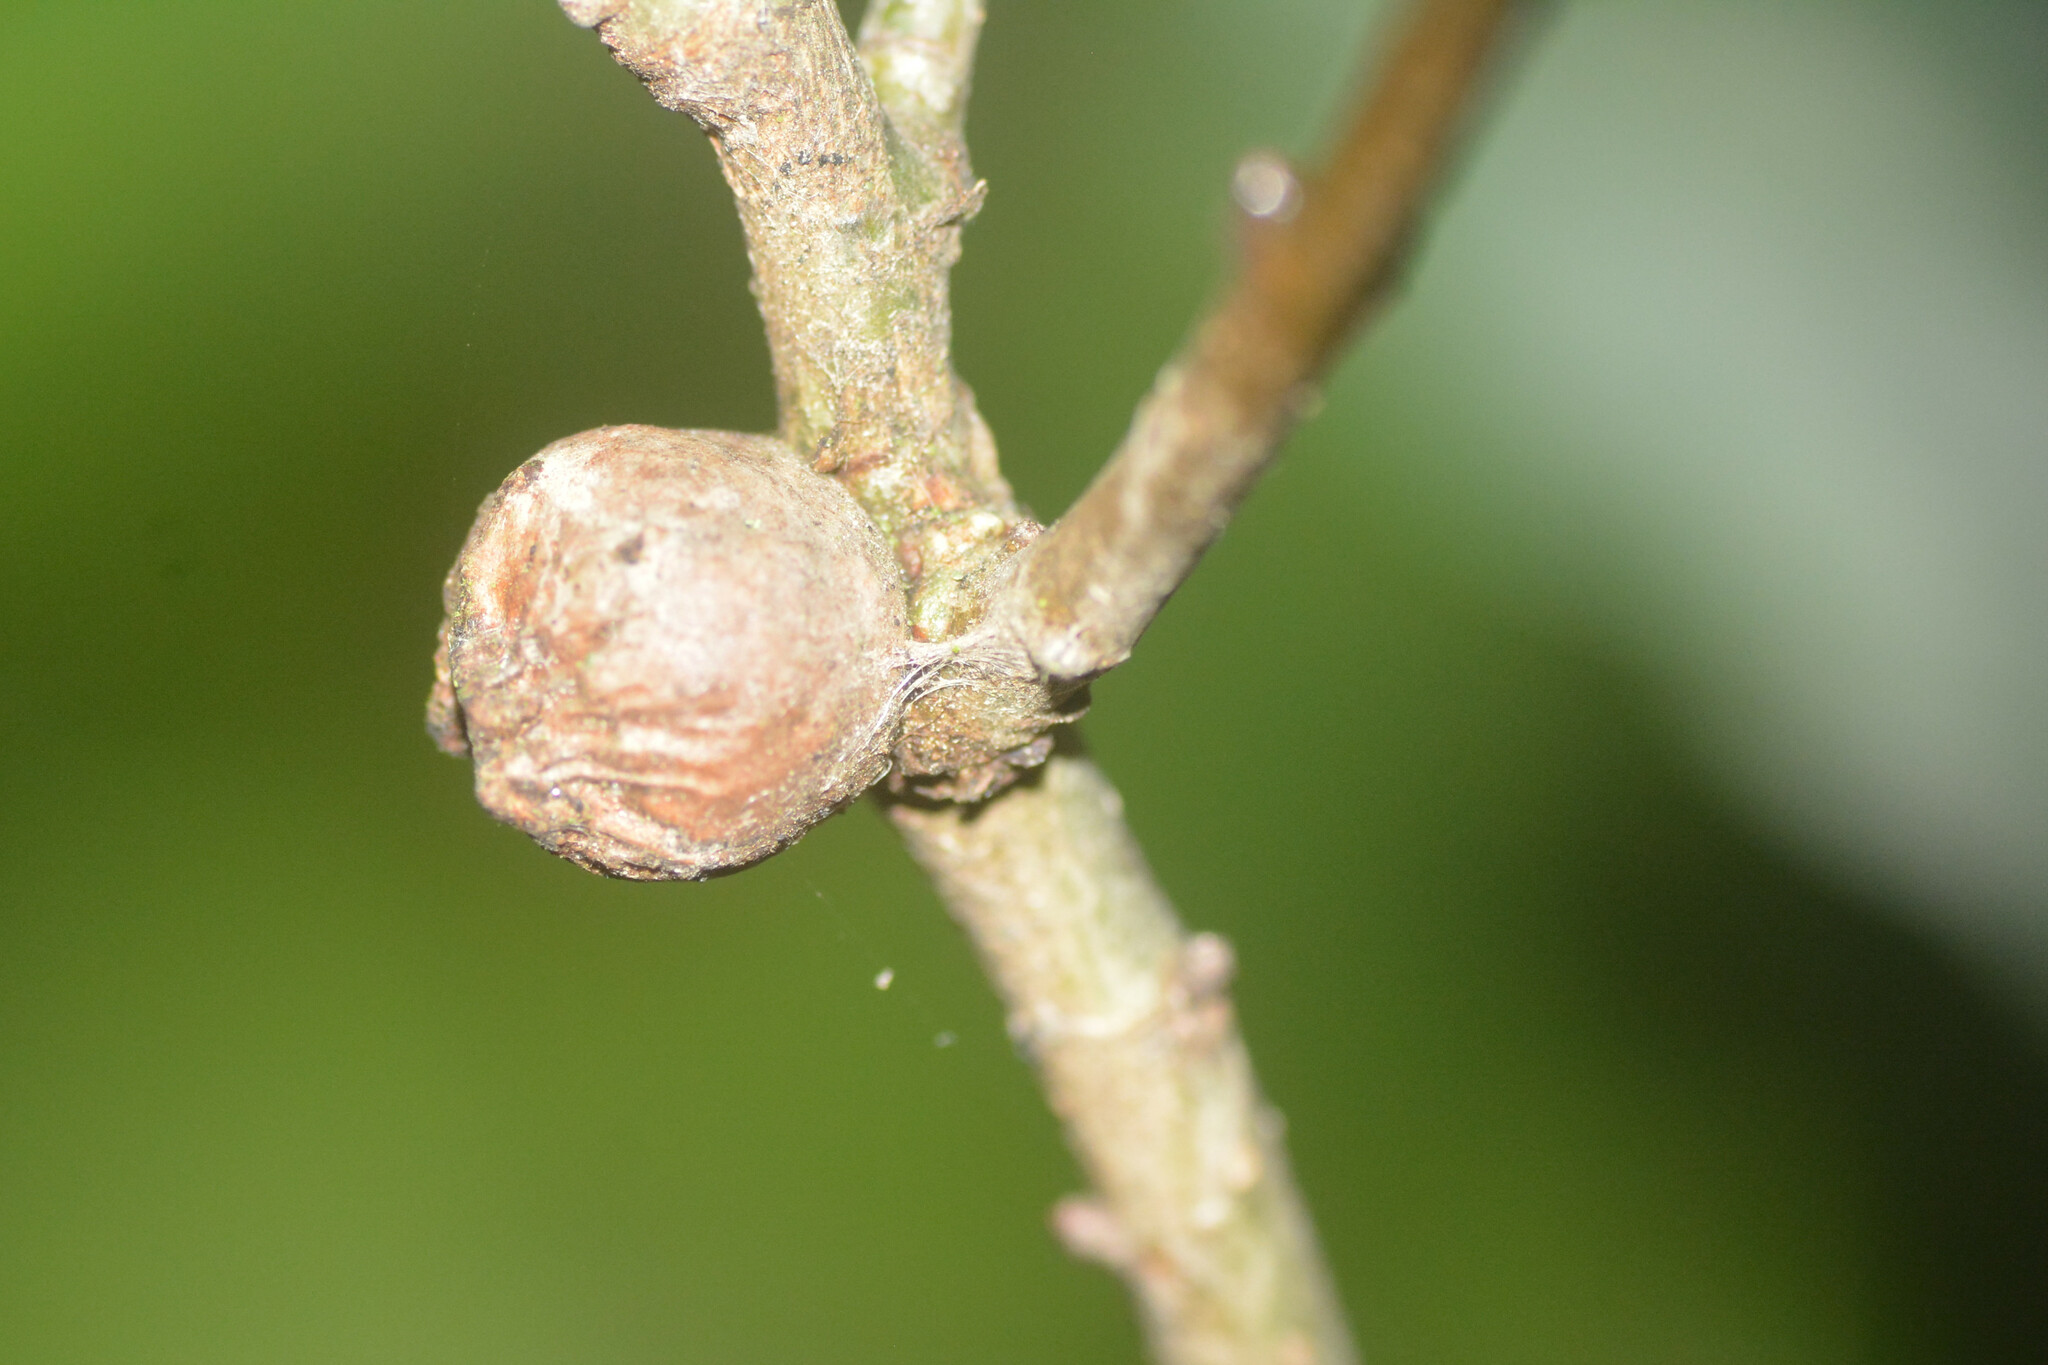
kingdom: Animalia
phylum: Arthropoda
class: Insecta
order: Hymenoptera
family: Cynipidae
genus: Andricus
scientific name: Andricus lignicolus
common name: Cola-nut gall
